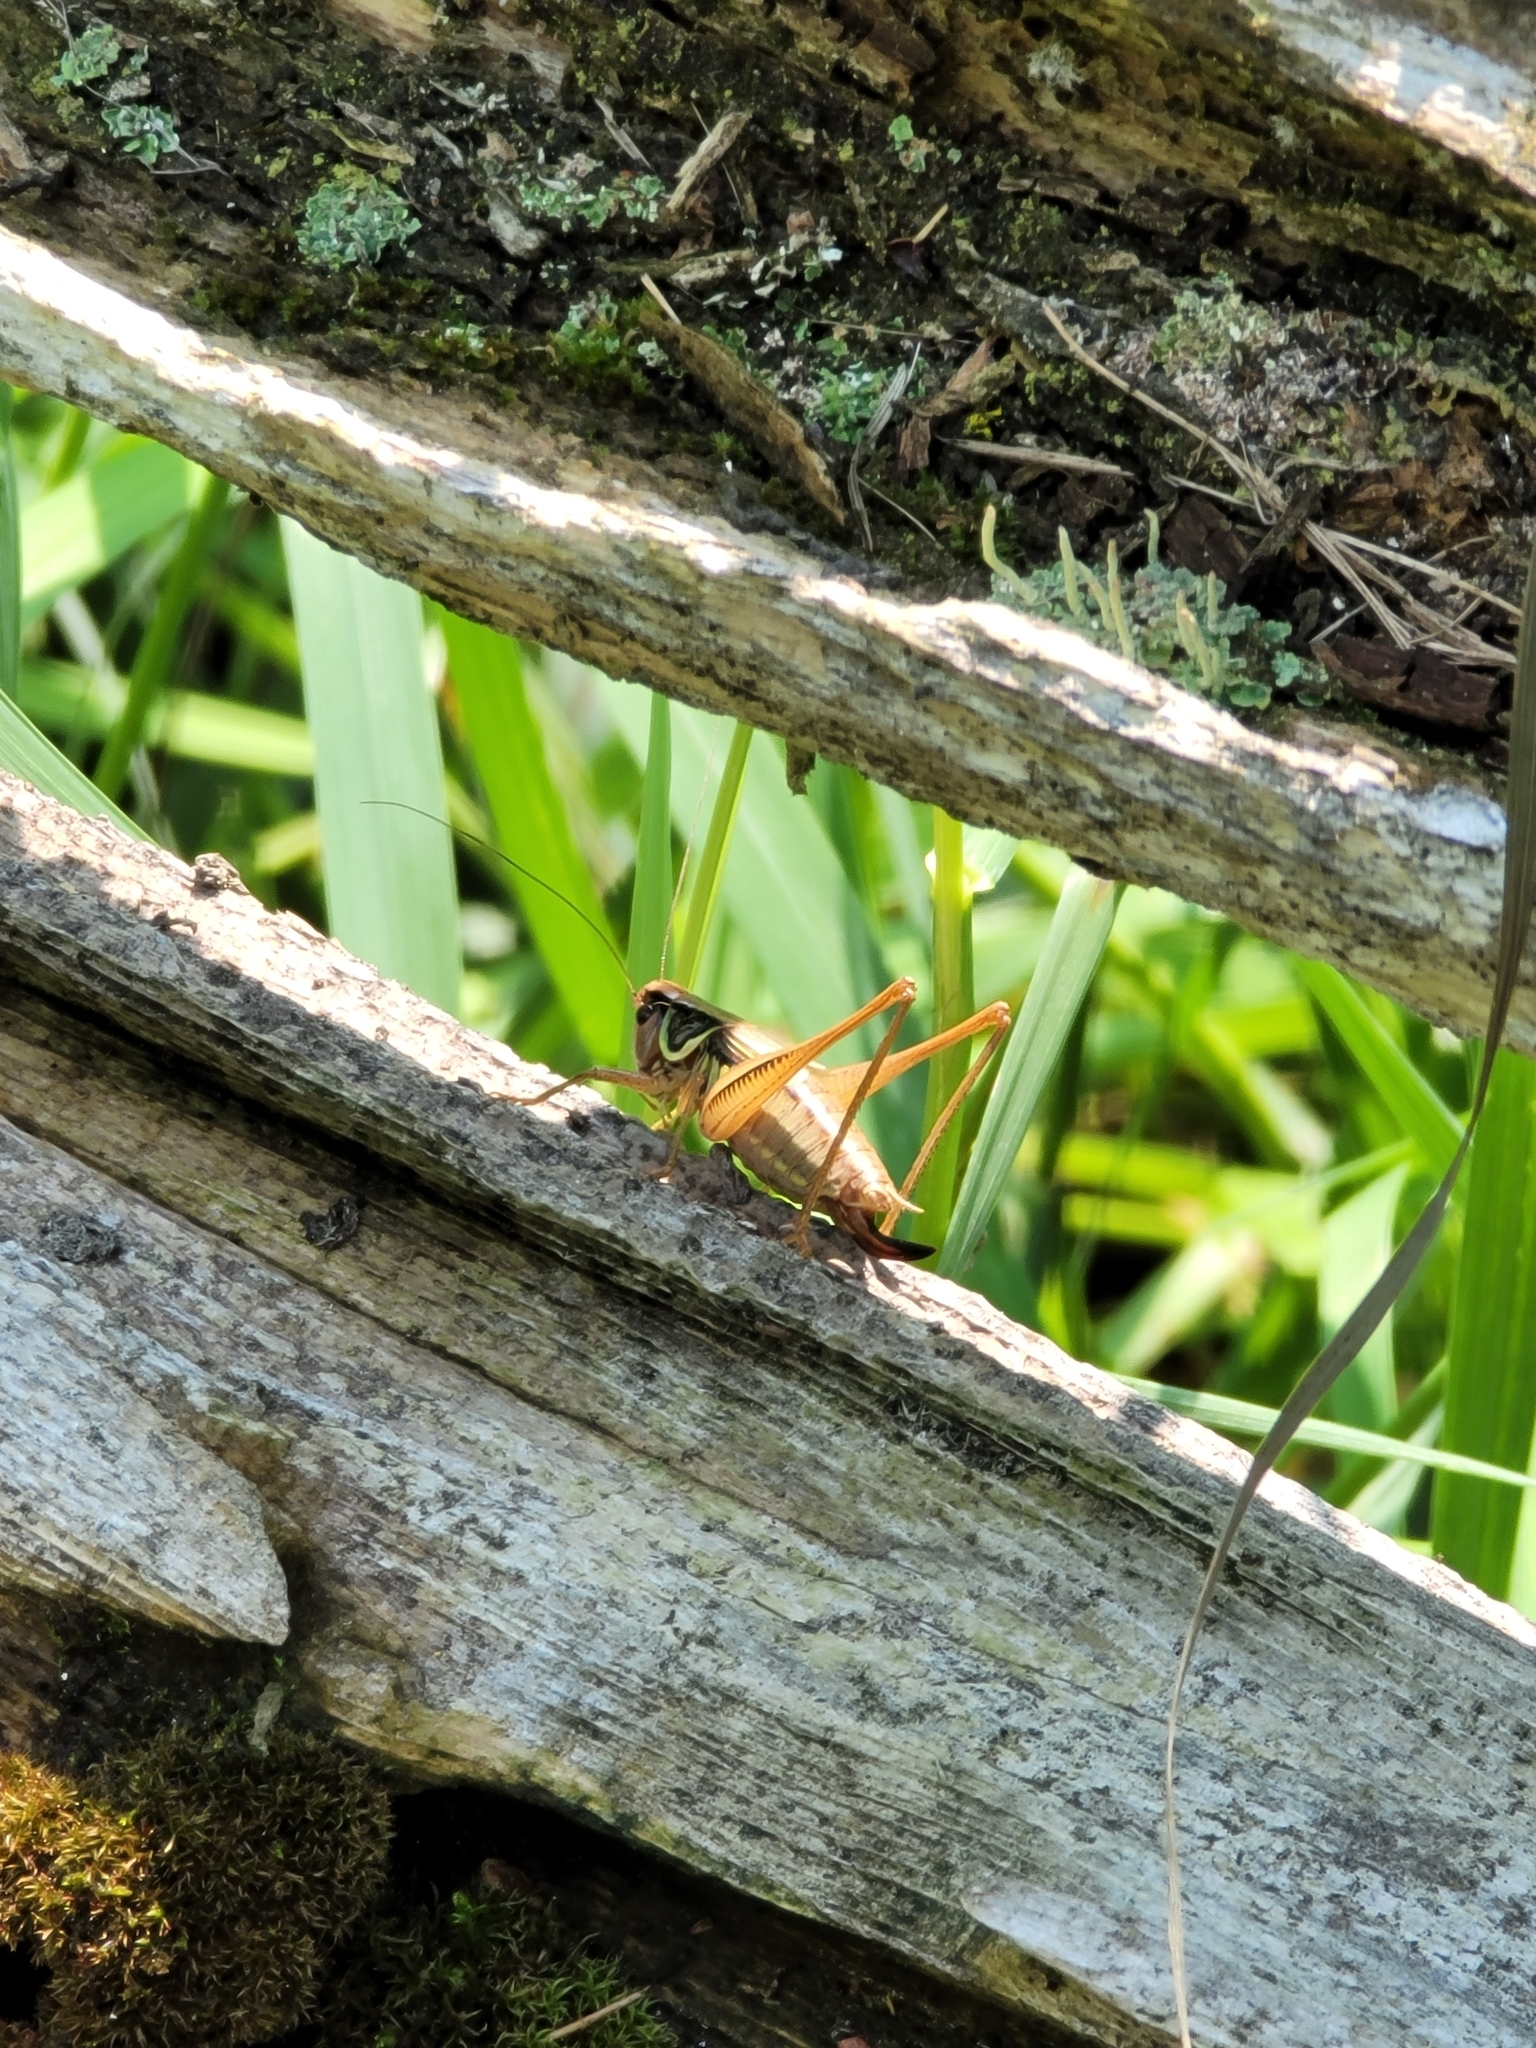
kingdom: Animalia
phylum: Arthropoda
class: Insecta
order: Orthoptera
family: Tettigoniidae
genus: Roeseliana
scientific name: Roeseliana roeselii
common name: Roesel's bush cricket
